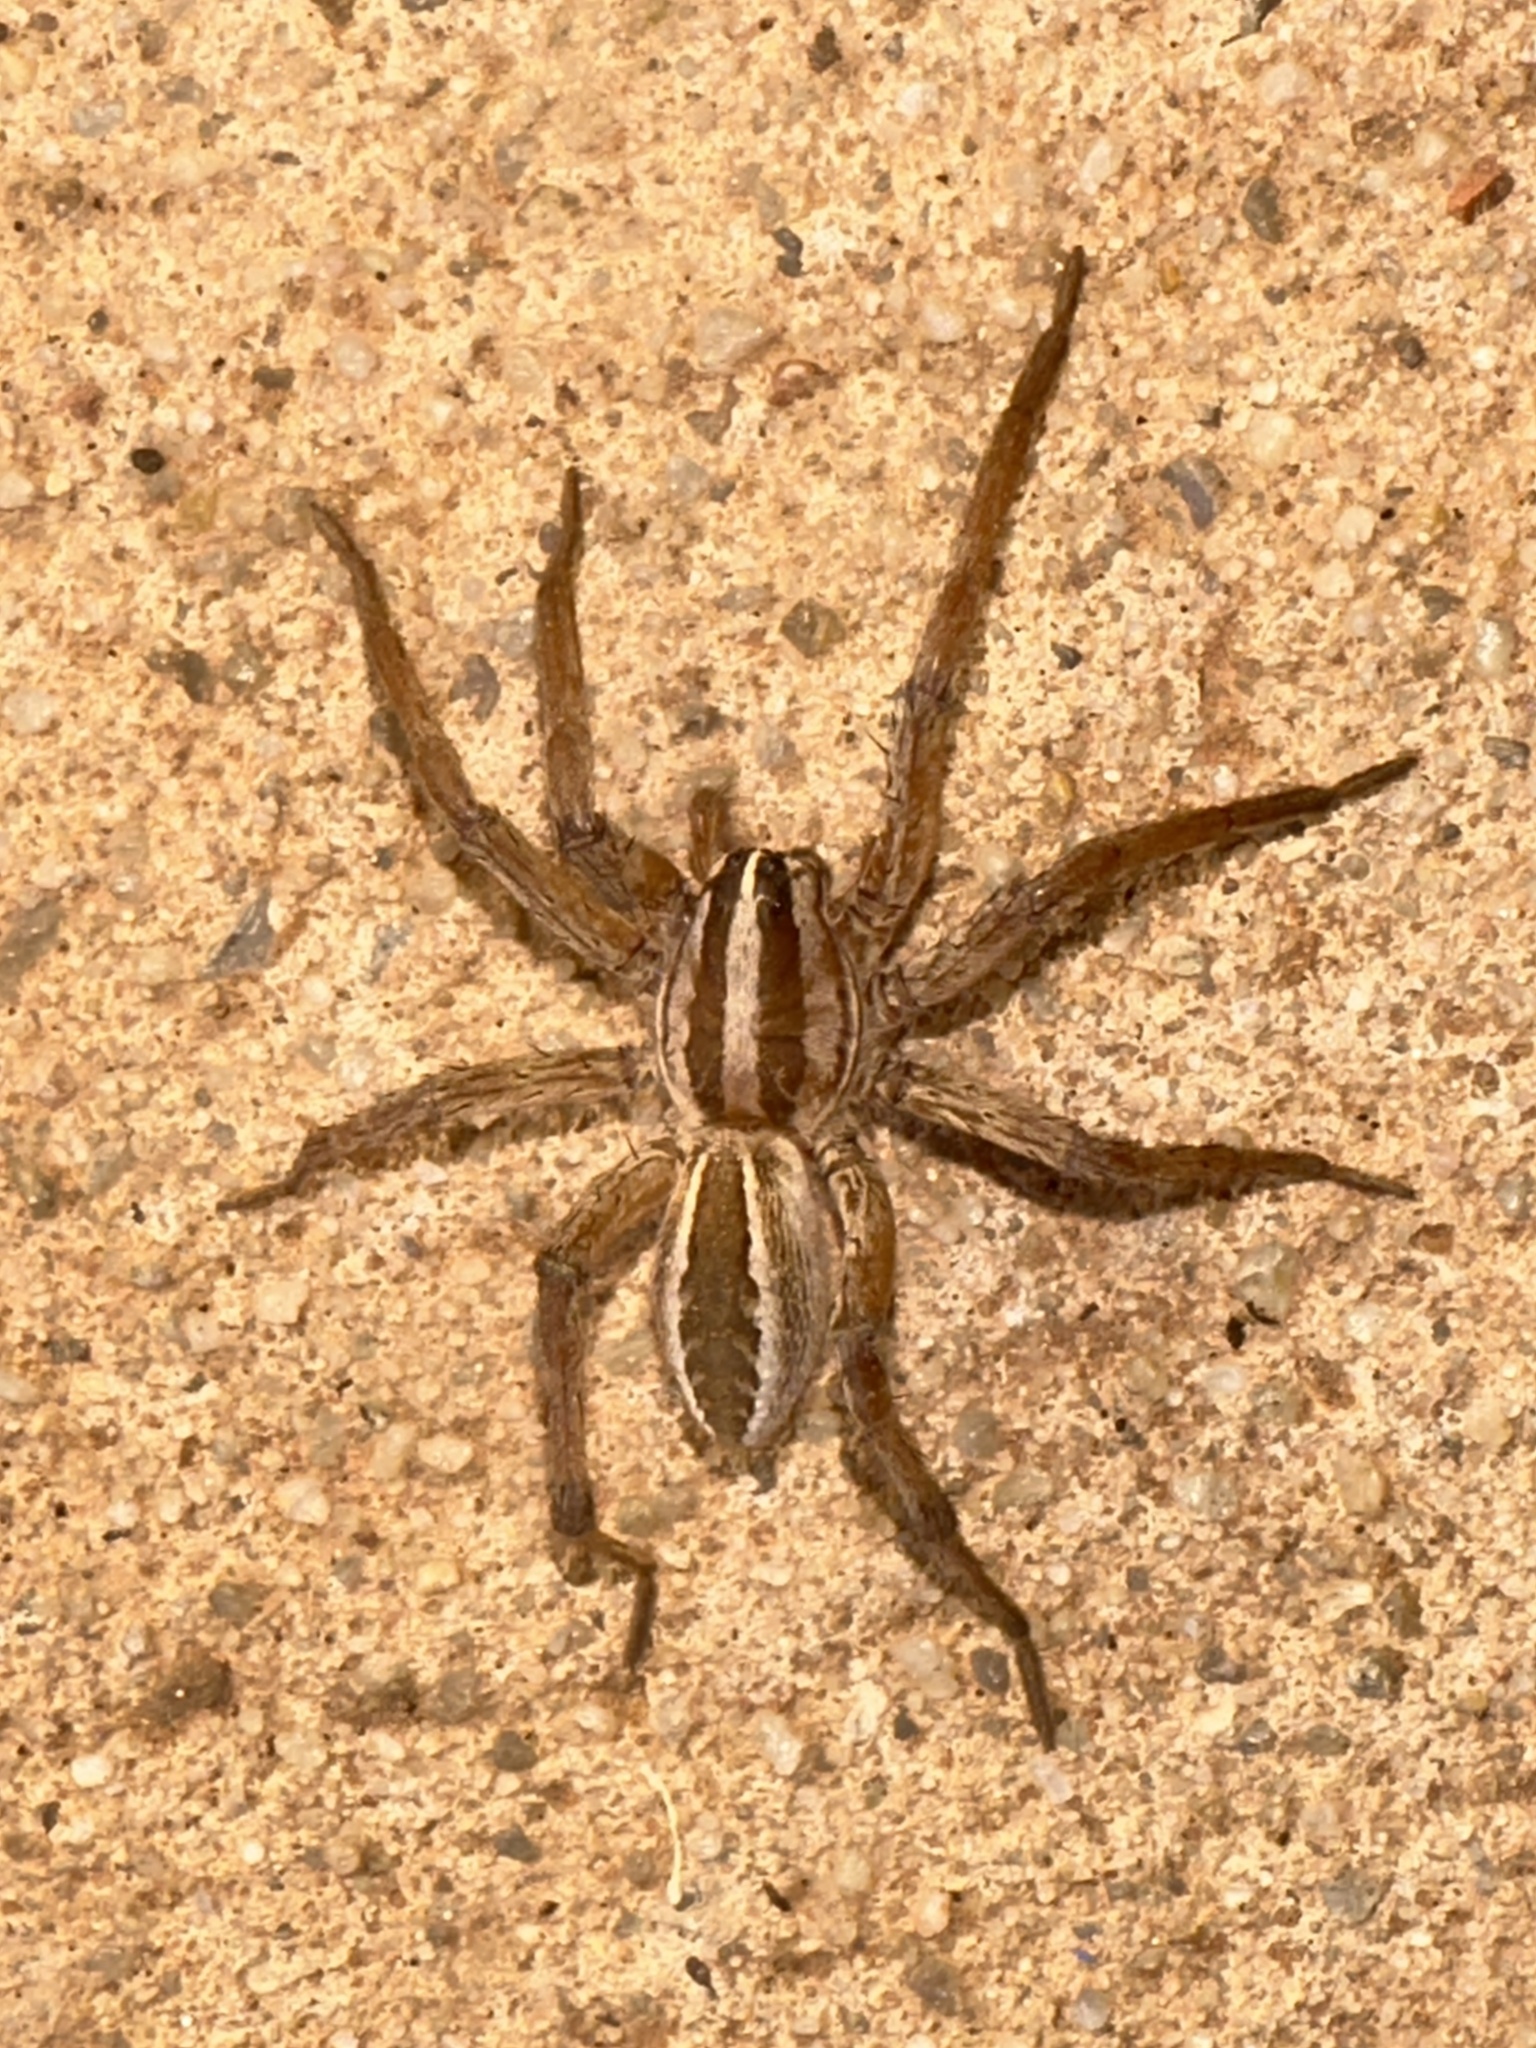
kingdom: Animalia
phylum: Arthropoda
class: Arachnida
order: Araneae
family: Lycosidae
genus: Rabidosa
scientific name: Rabidosa rabida
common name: Rabid wolf spider
